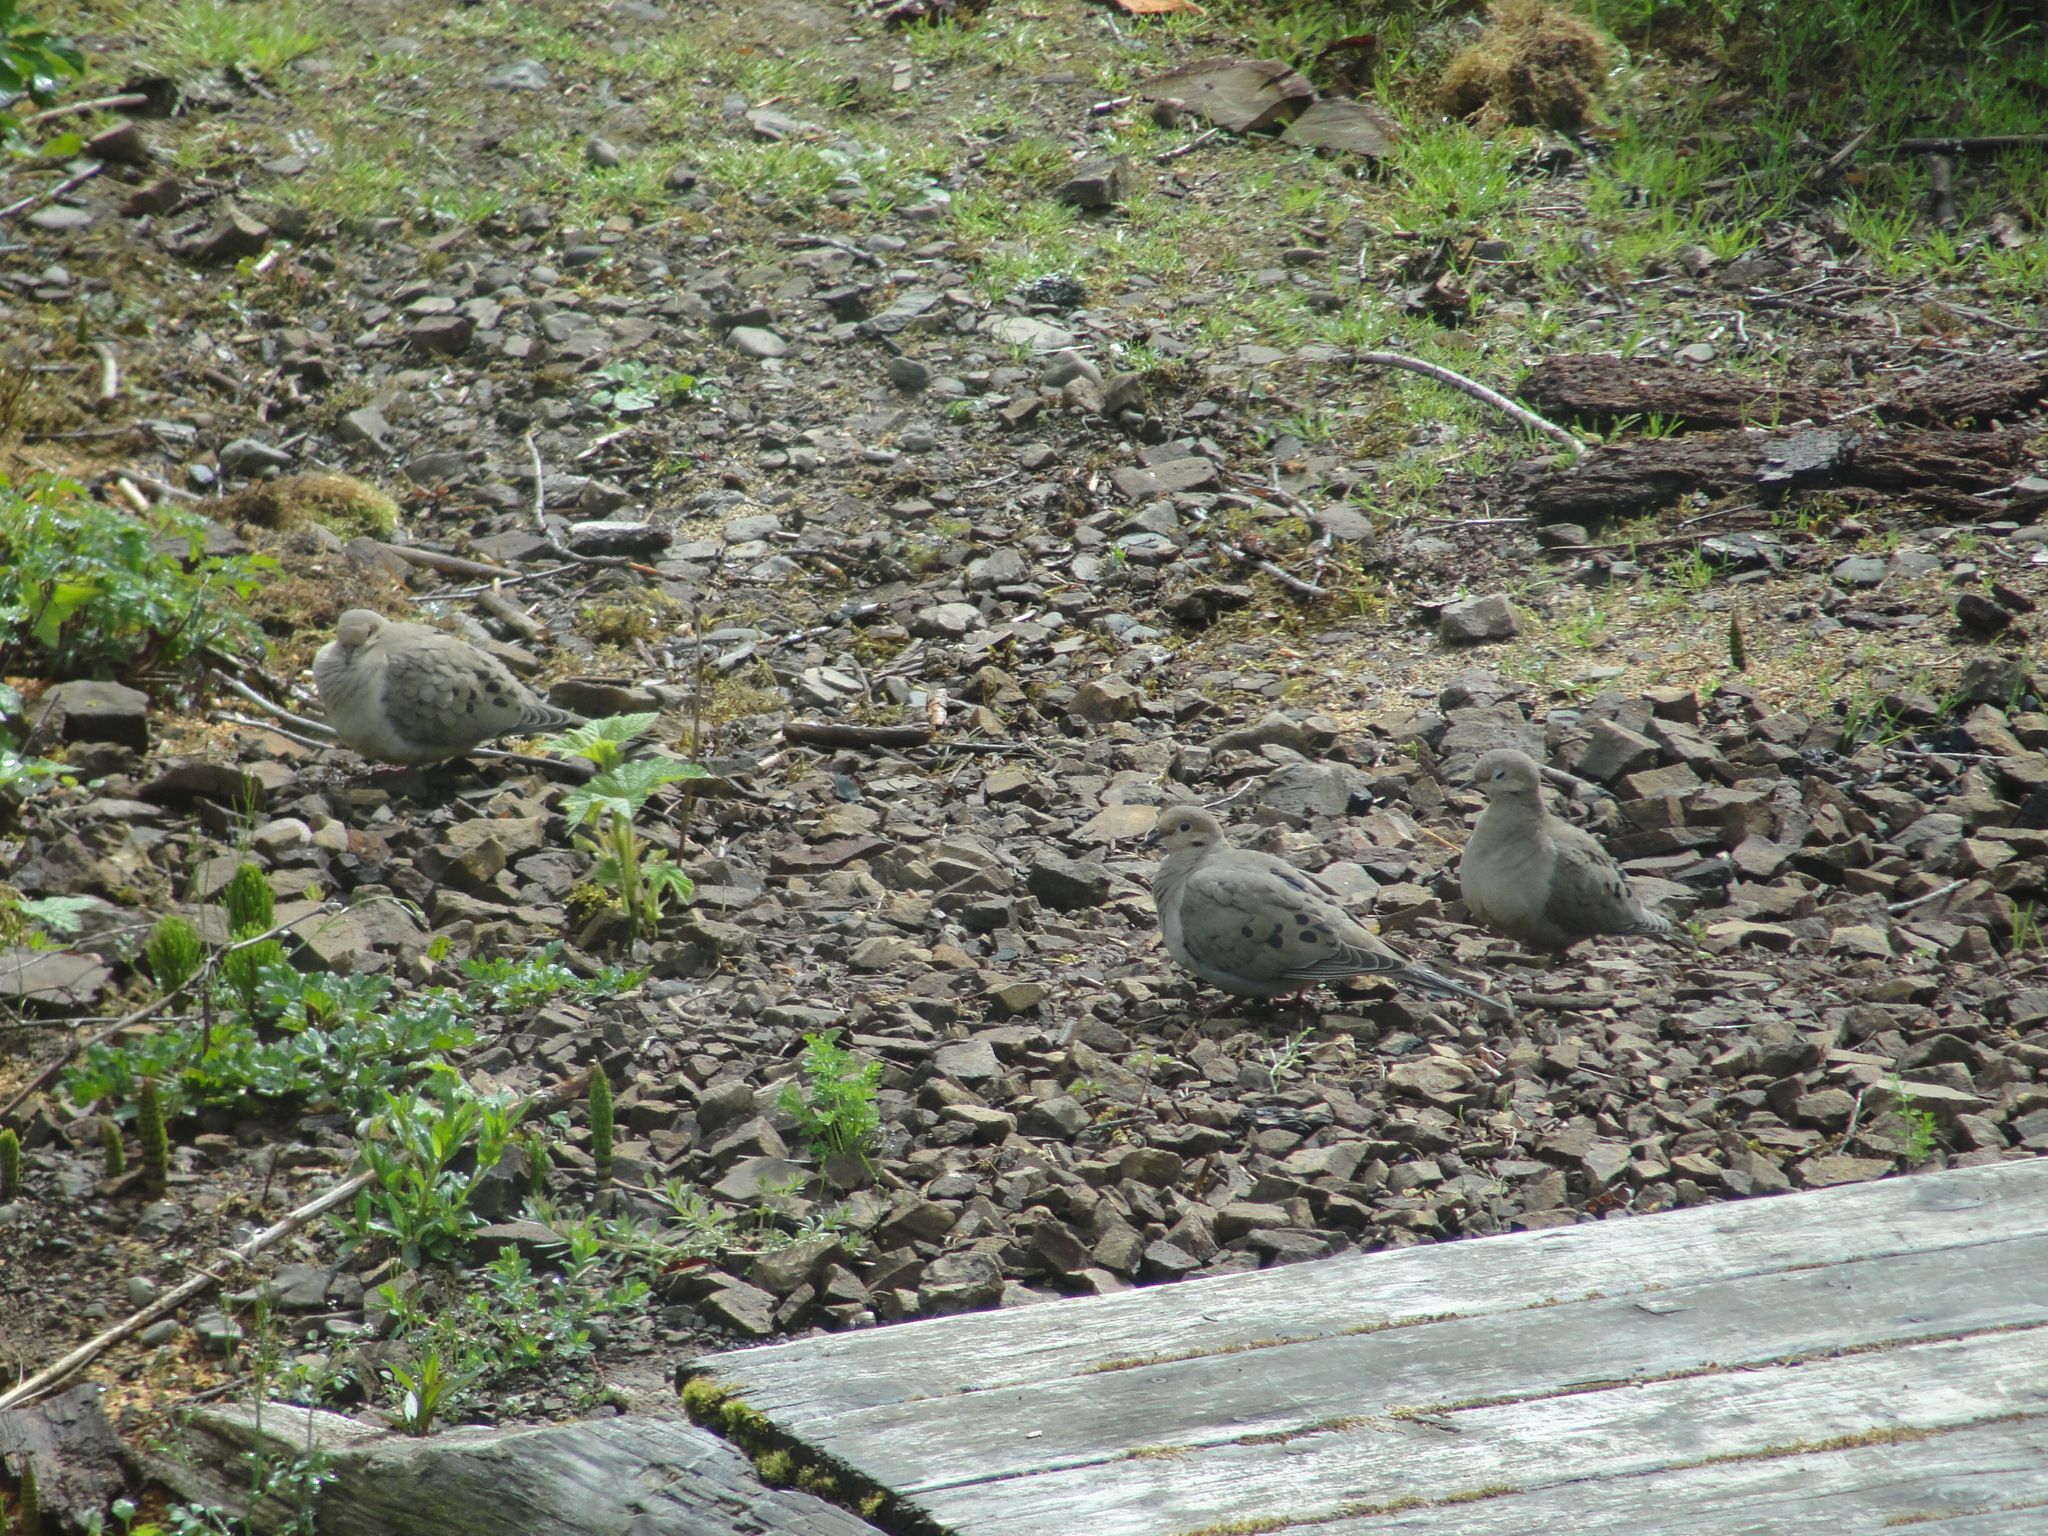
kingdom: Animalia
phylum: Chordata
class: Aves
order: Columbiformes
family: Columbidae
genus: Zenaida
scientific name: Zenaida macroura
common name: Mourning dove
